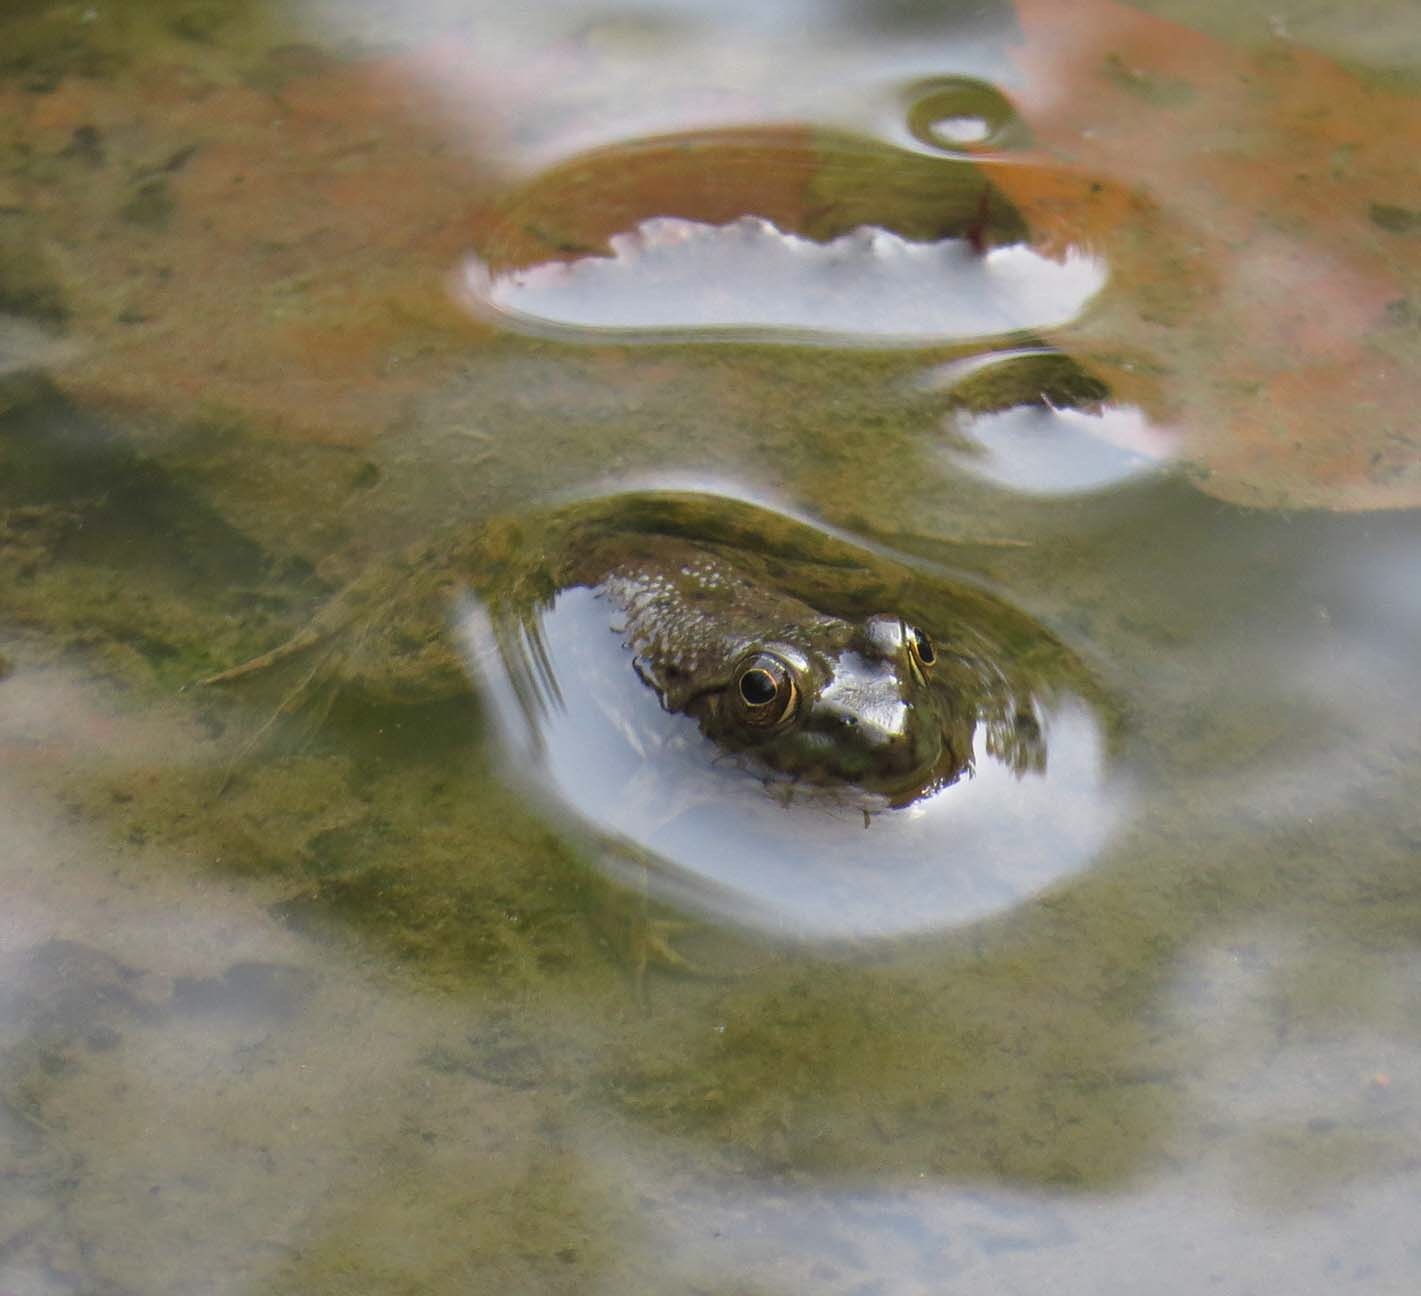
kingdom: Animalia
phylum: Chordata
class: Amphibia
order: Anura
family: Ranidae
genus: Lithobates
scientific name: Lithobates catesbeianus
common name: American bullfrog
